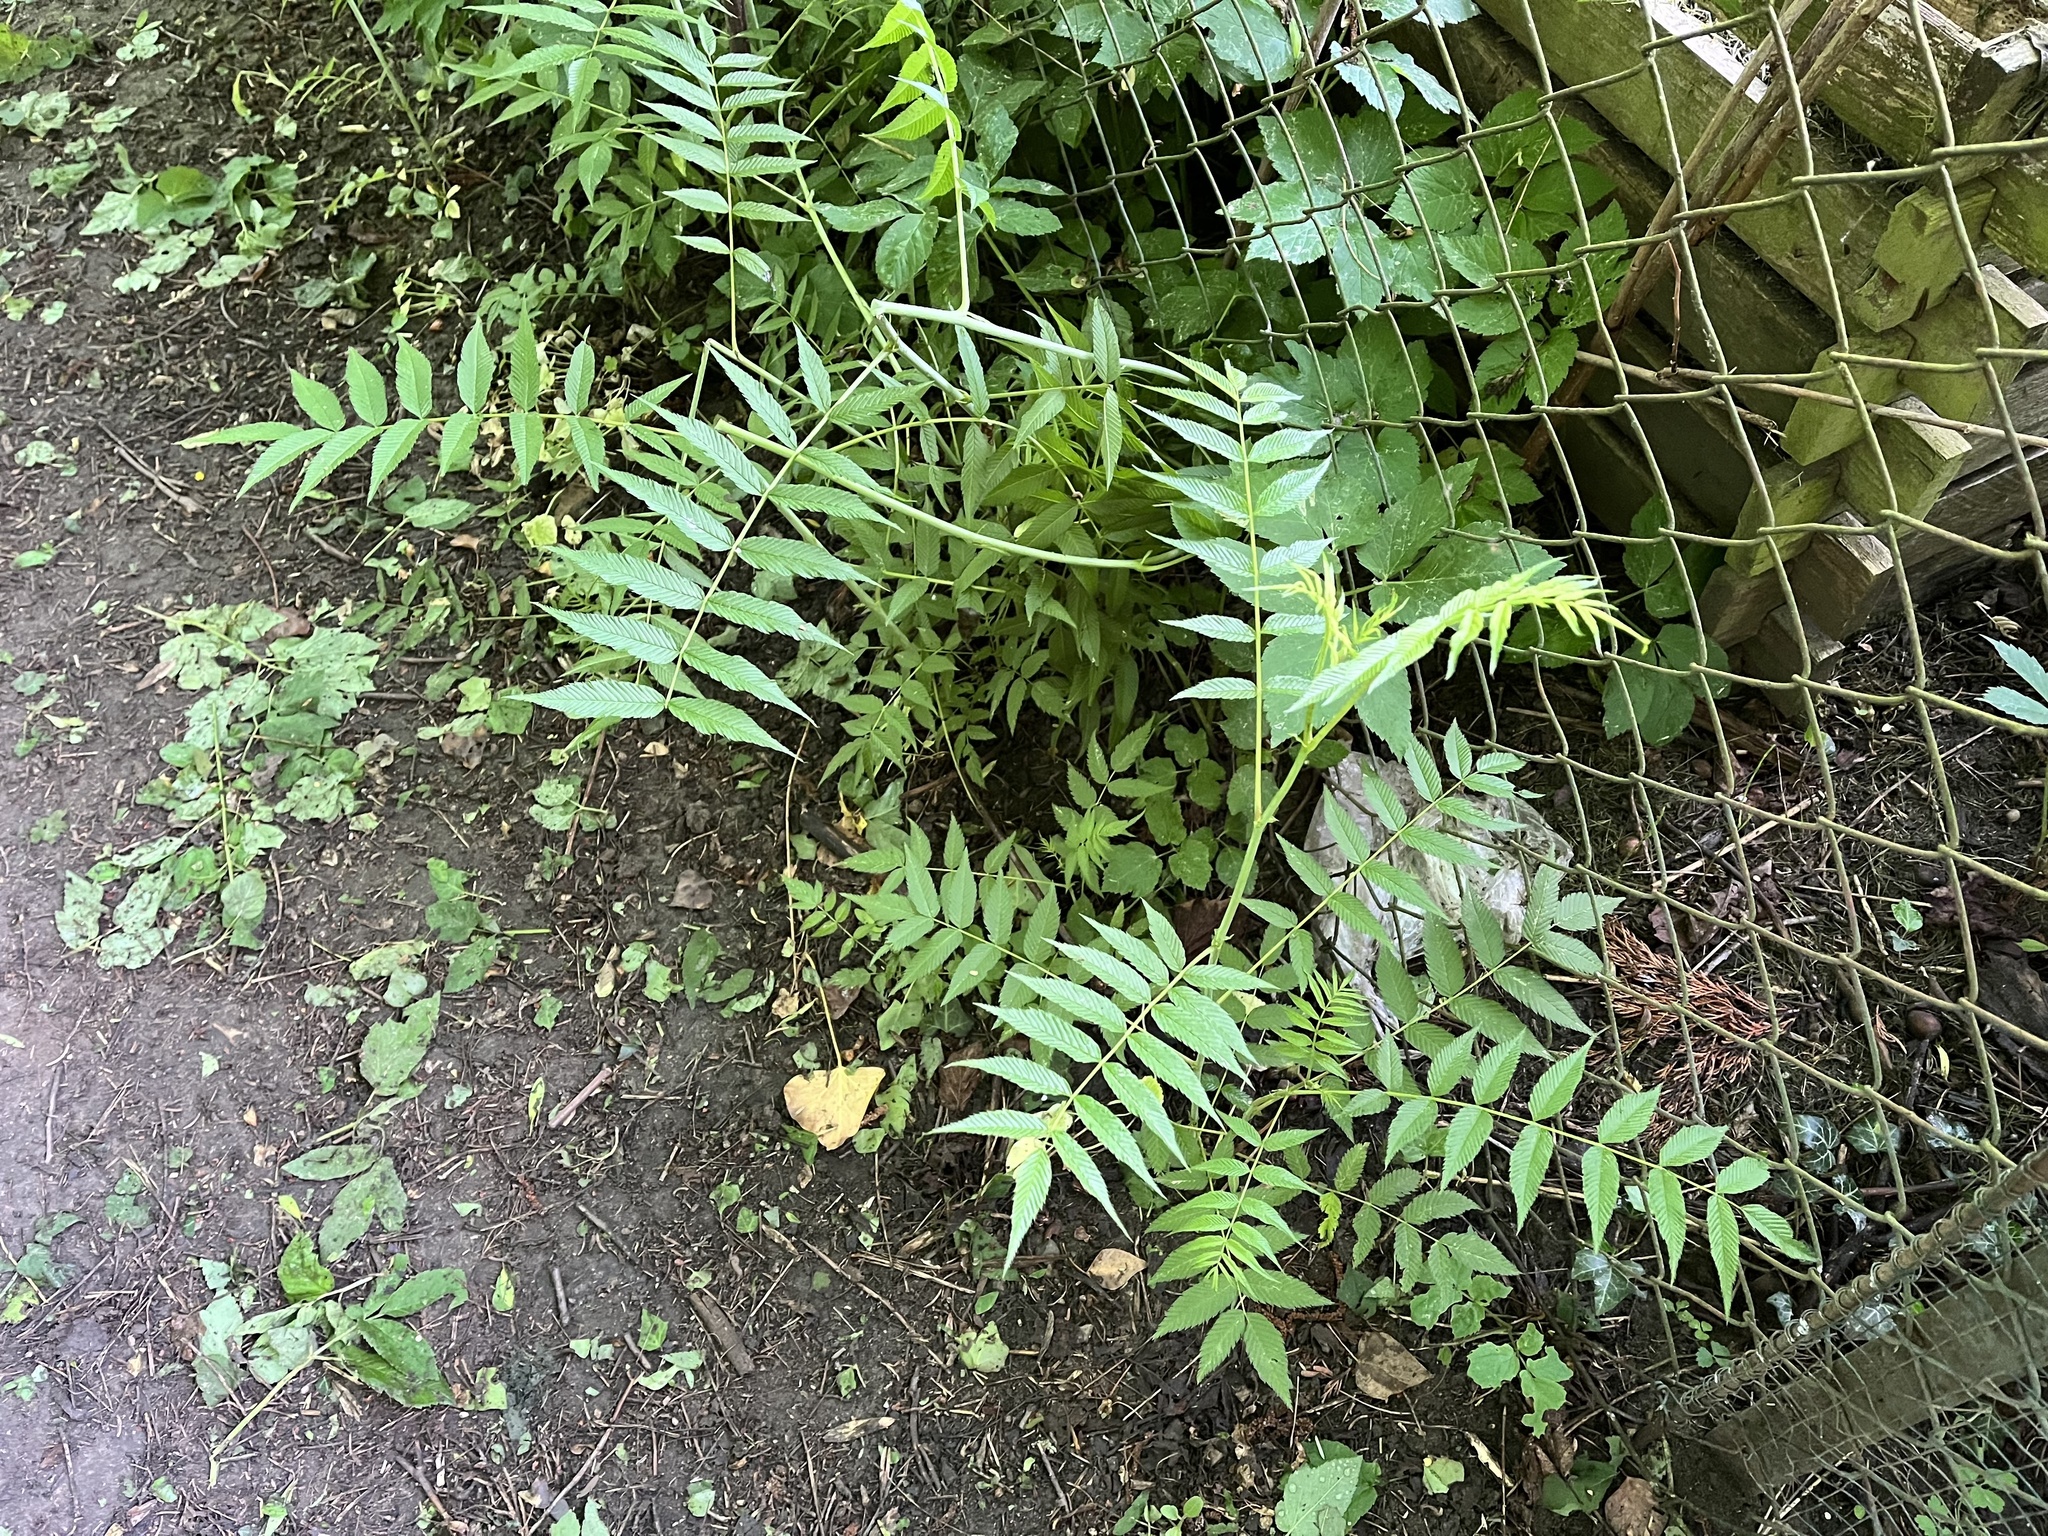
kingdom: Plantae
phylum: Tracheophyta
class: Magnoliopsida
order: Rosales
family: Rosaceae
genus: Sorbaria
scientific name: Sorbaria sorbifolia
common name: False spiraea
